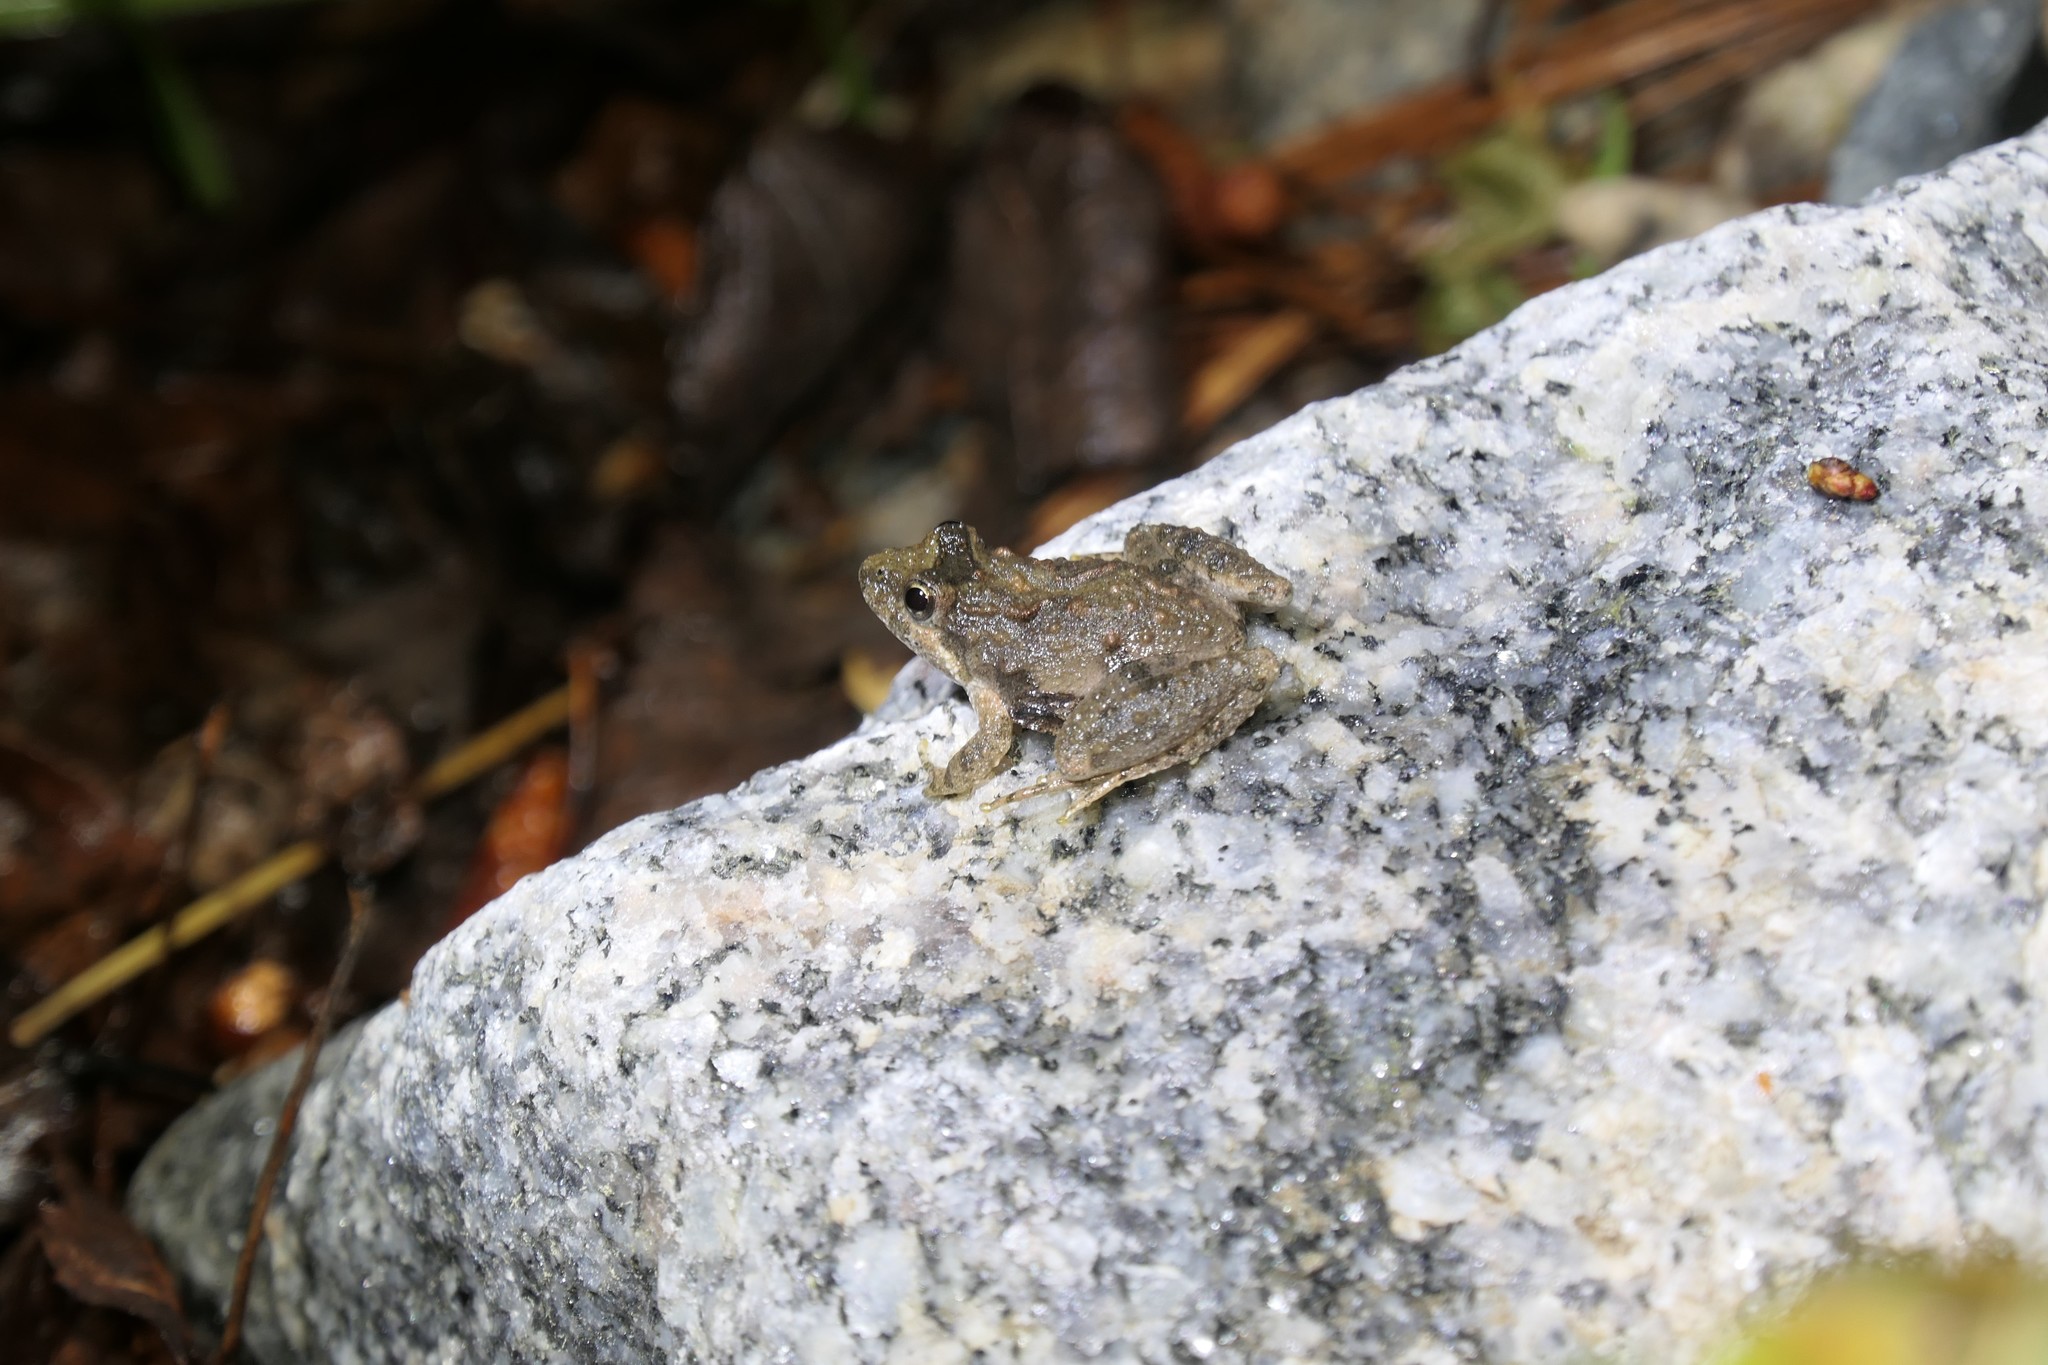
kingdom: Animalia
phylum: Chordata
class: Amphibia
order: Anura
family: Hylidae
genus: Acris
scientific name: Acris gryllus
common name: Southern cricket frog
